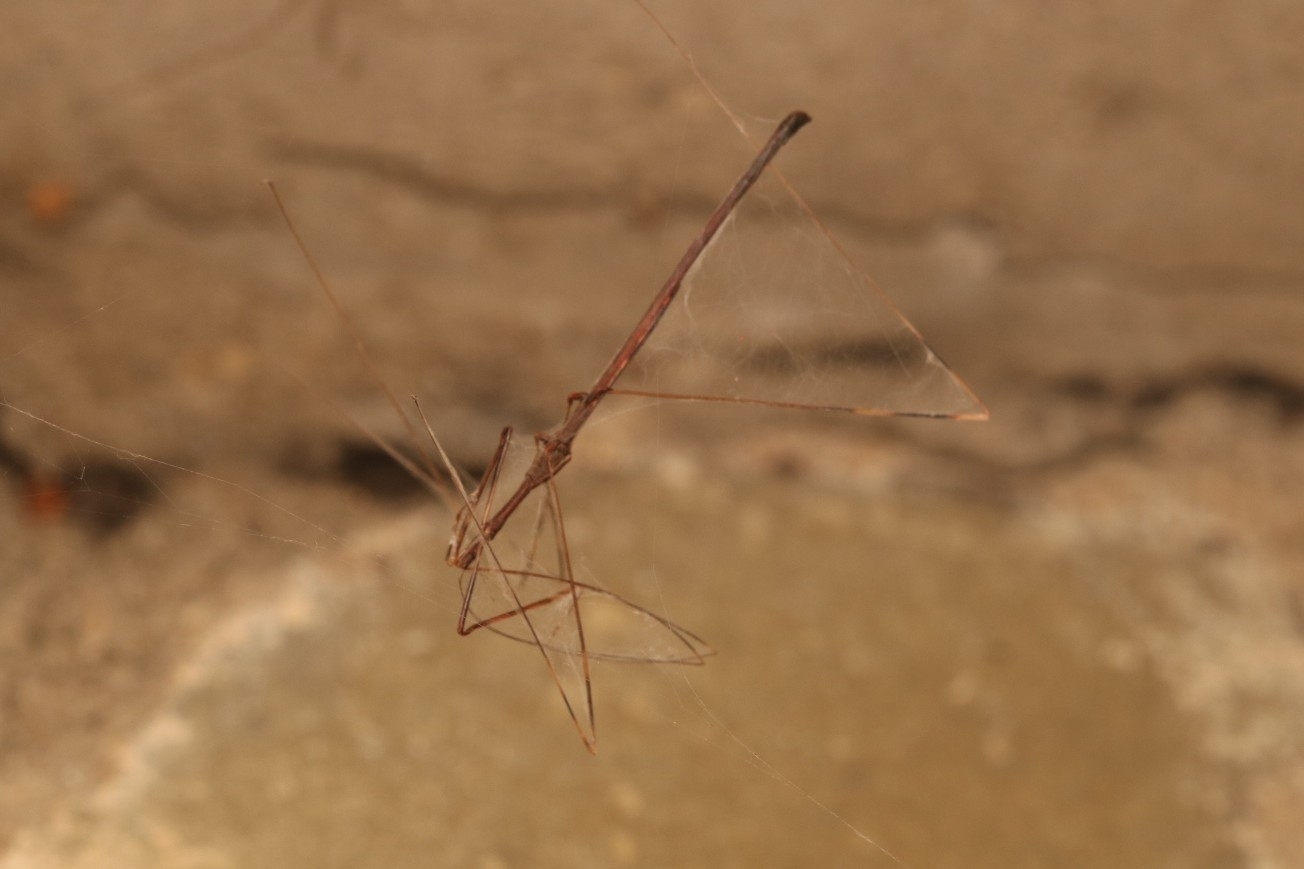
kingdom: Animalia
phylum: Arthropoda
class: Insecta
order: Hemiptera
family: Reduviidae
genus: Emesaya
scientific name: Emesaya brevipennis
